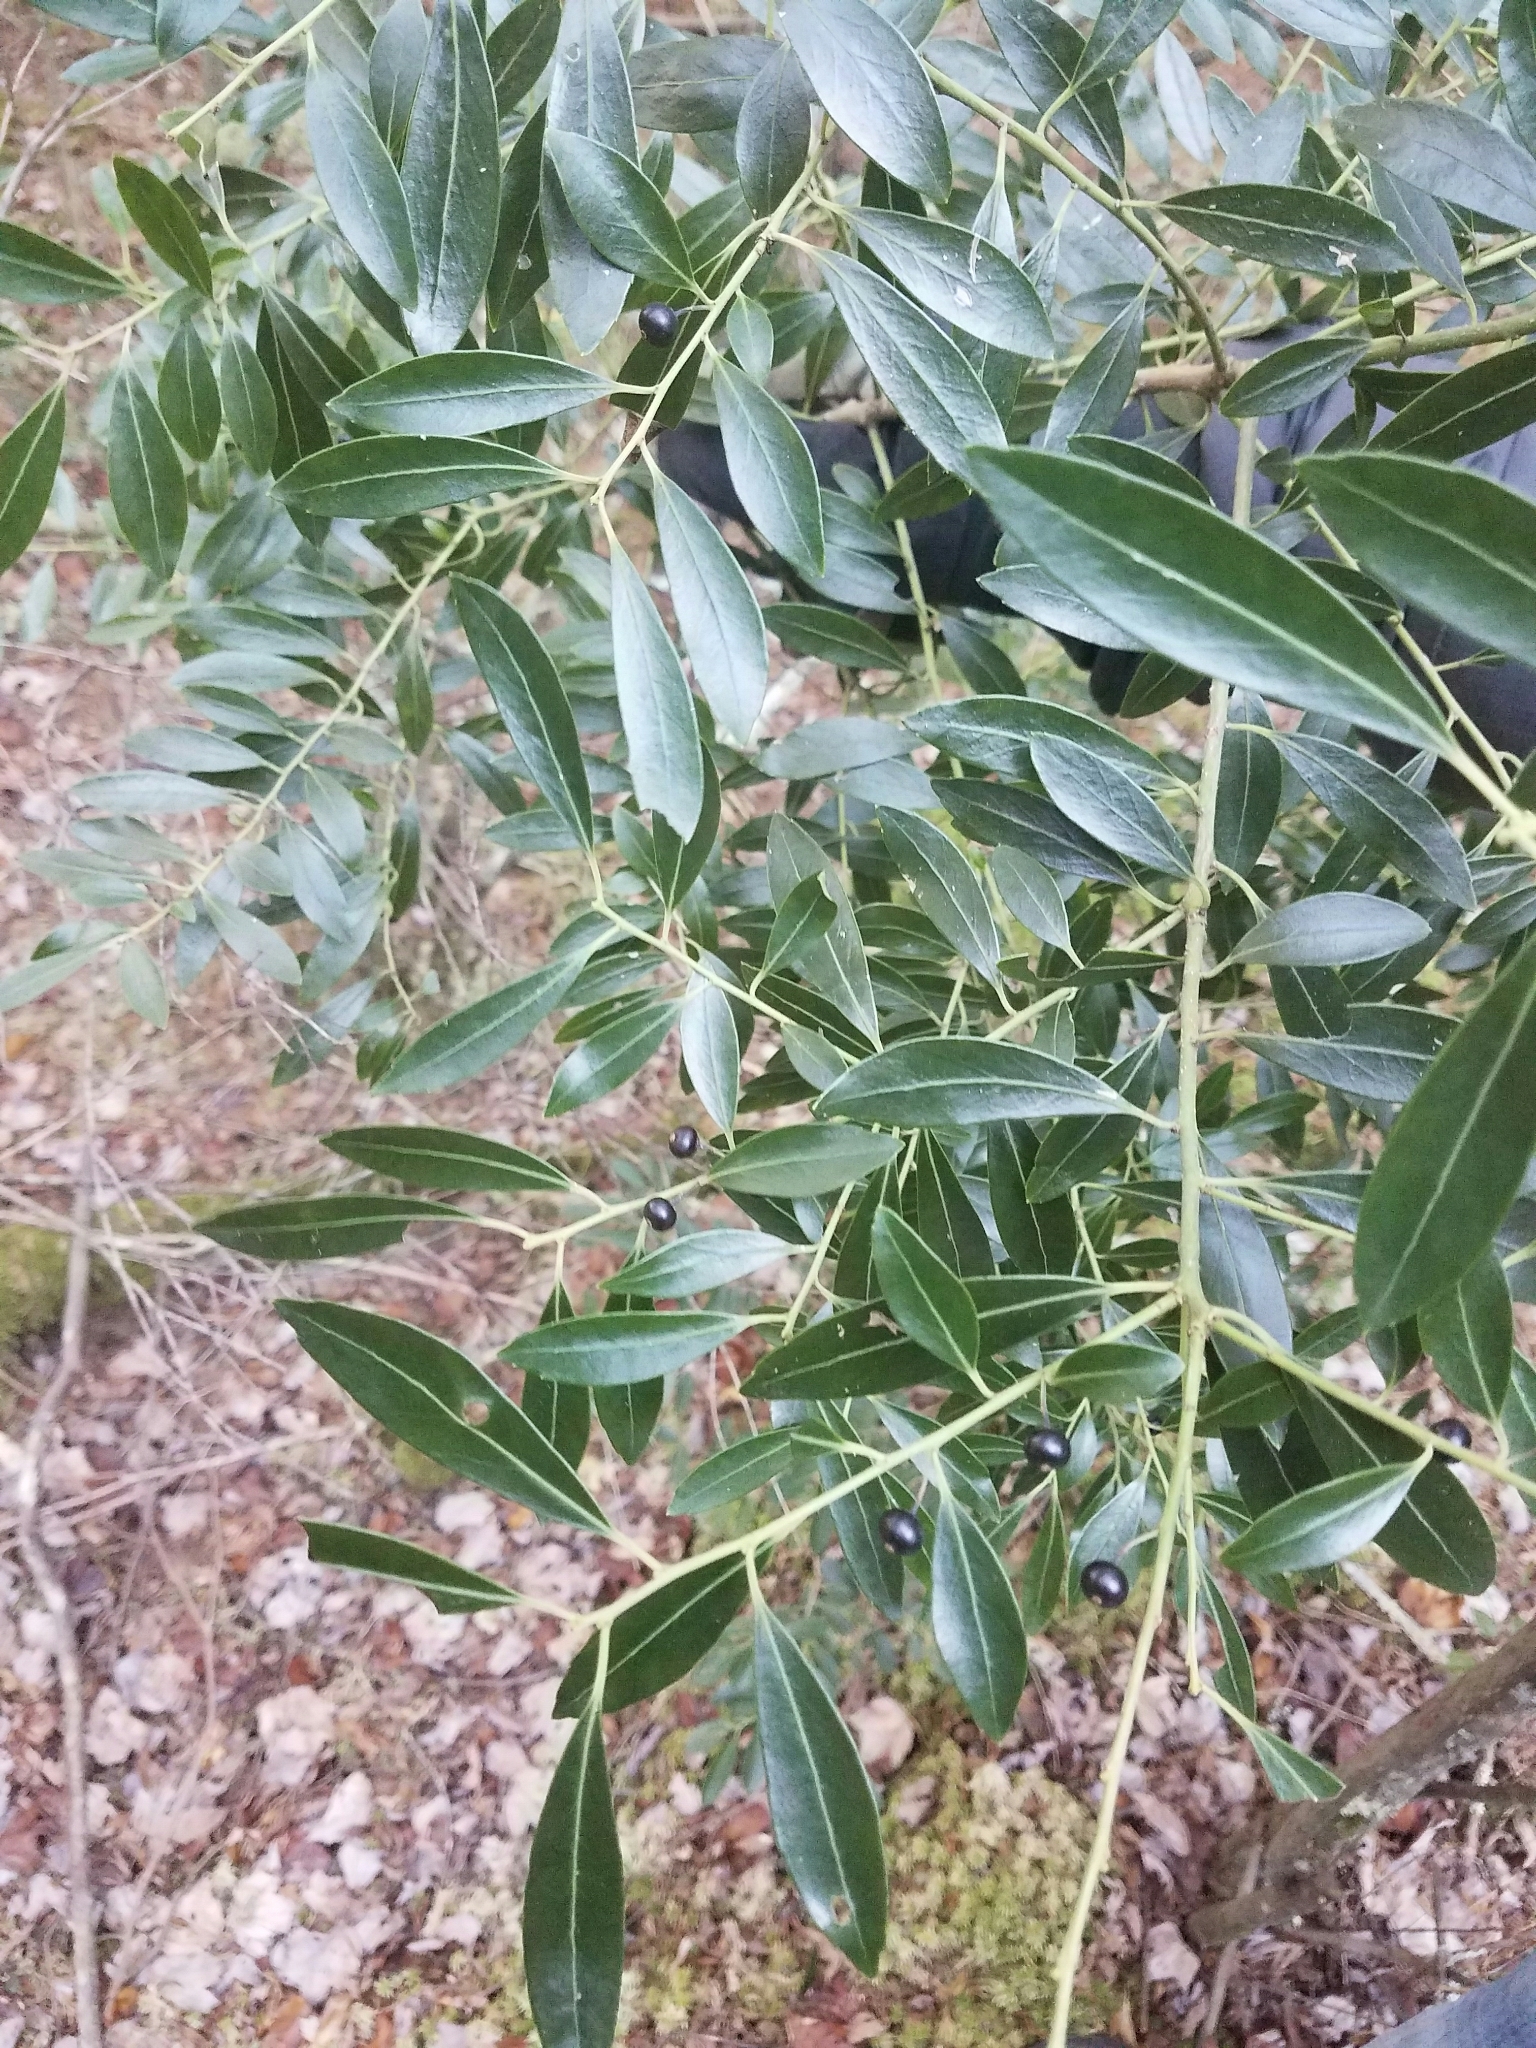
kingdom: Plantae
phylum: Tracheophyta
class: Magnoliopsida
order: Aquifoliales
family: Aquifoliaceae
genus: Ilex
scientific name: Ilex glabra
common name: Bitter gallberry
